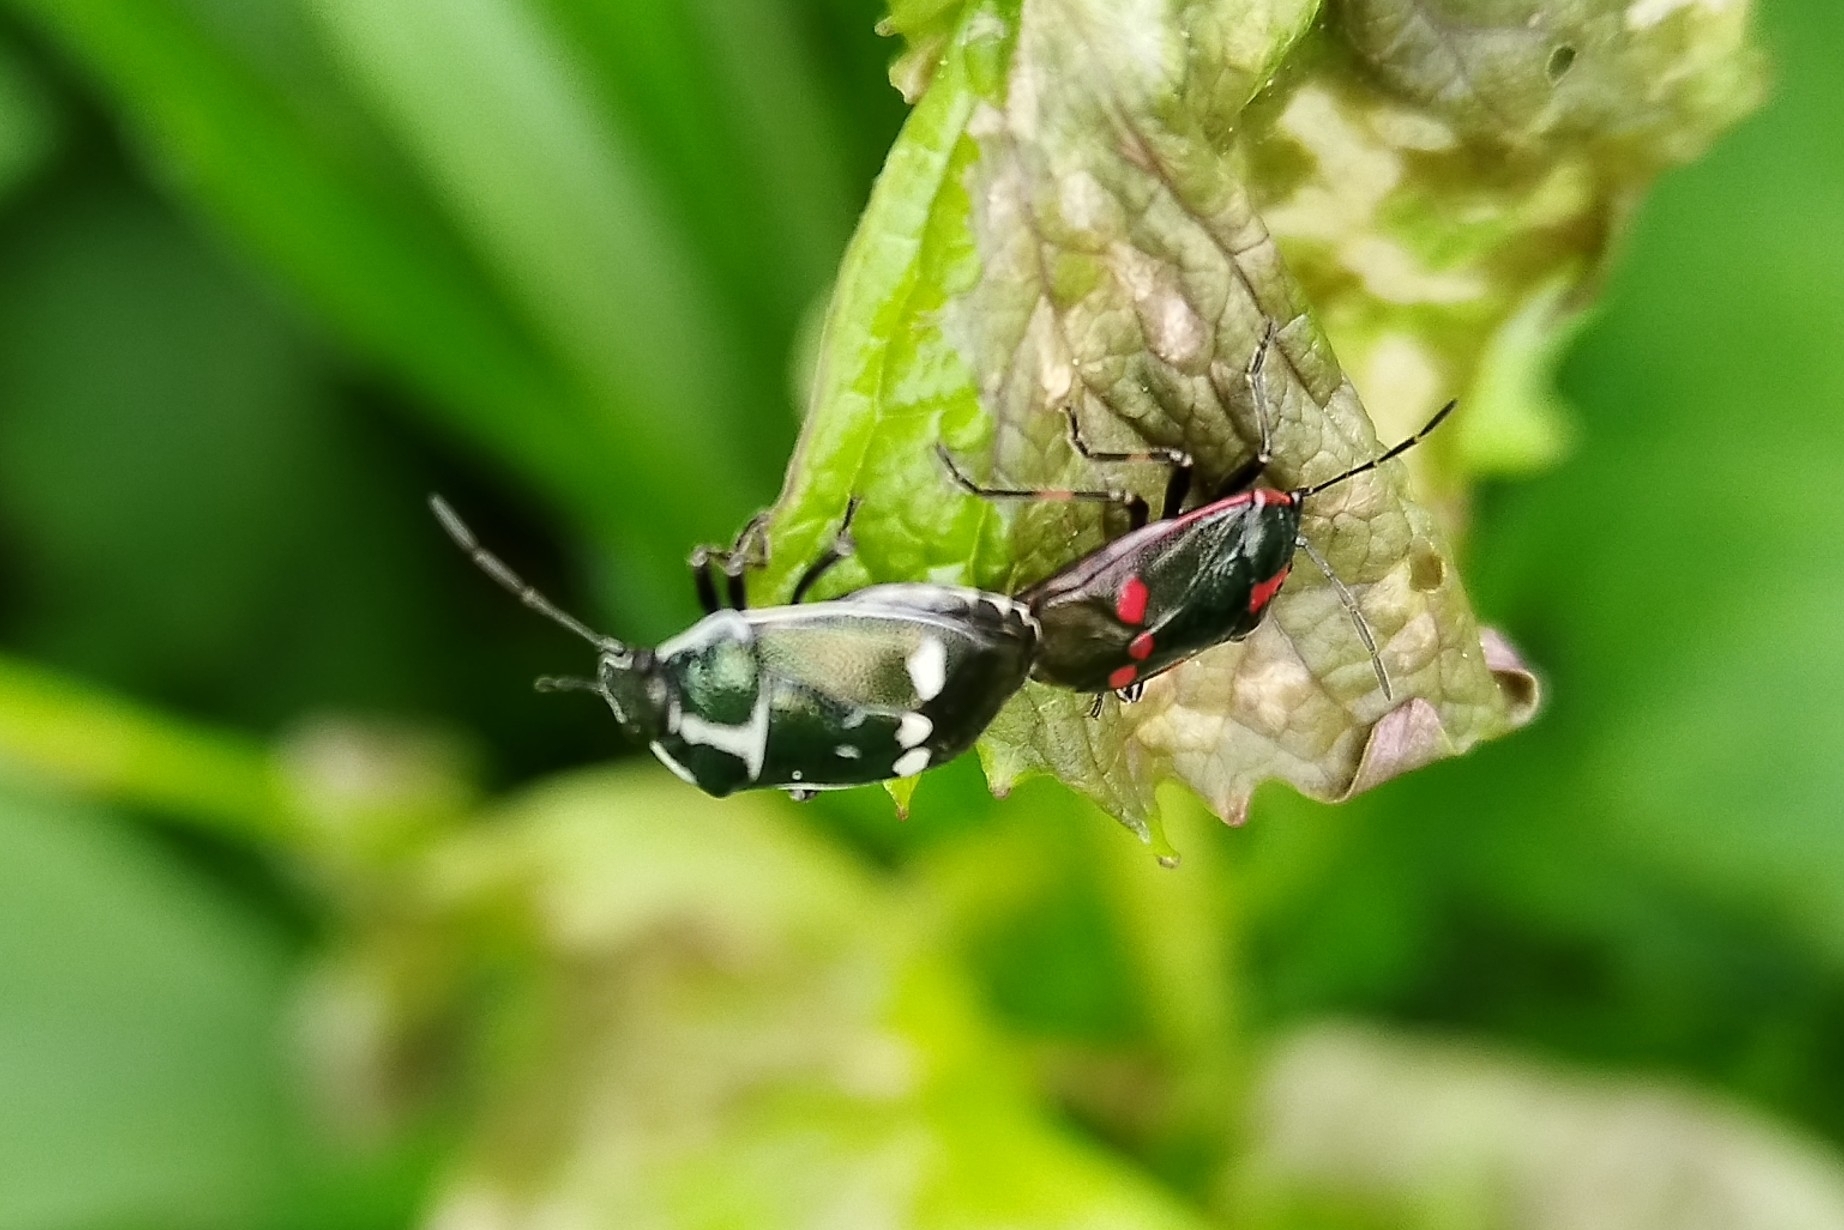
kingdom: Animalia
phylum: Arthropoda
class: Insecta
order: Hemiptera
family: Pentatomidae
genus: Eurydema
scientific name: Eurydema oleracea
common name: Cabbage bug
